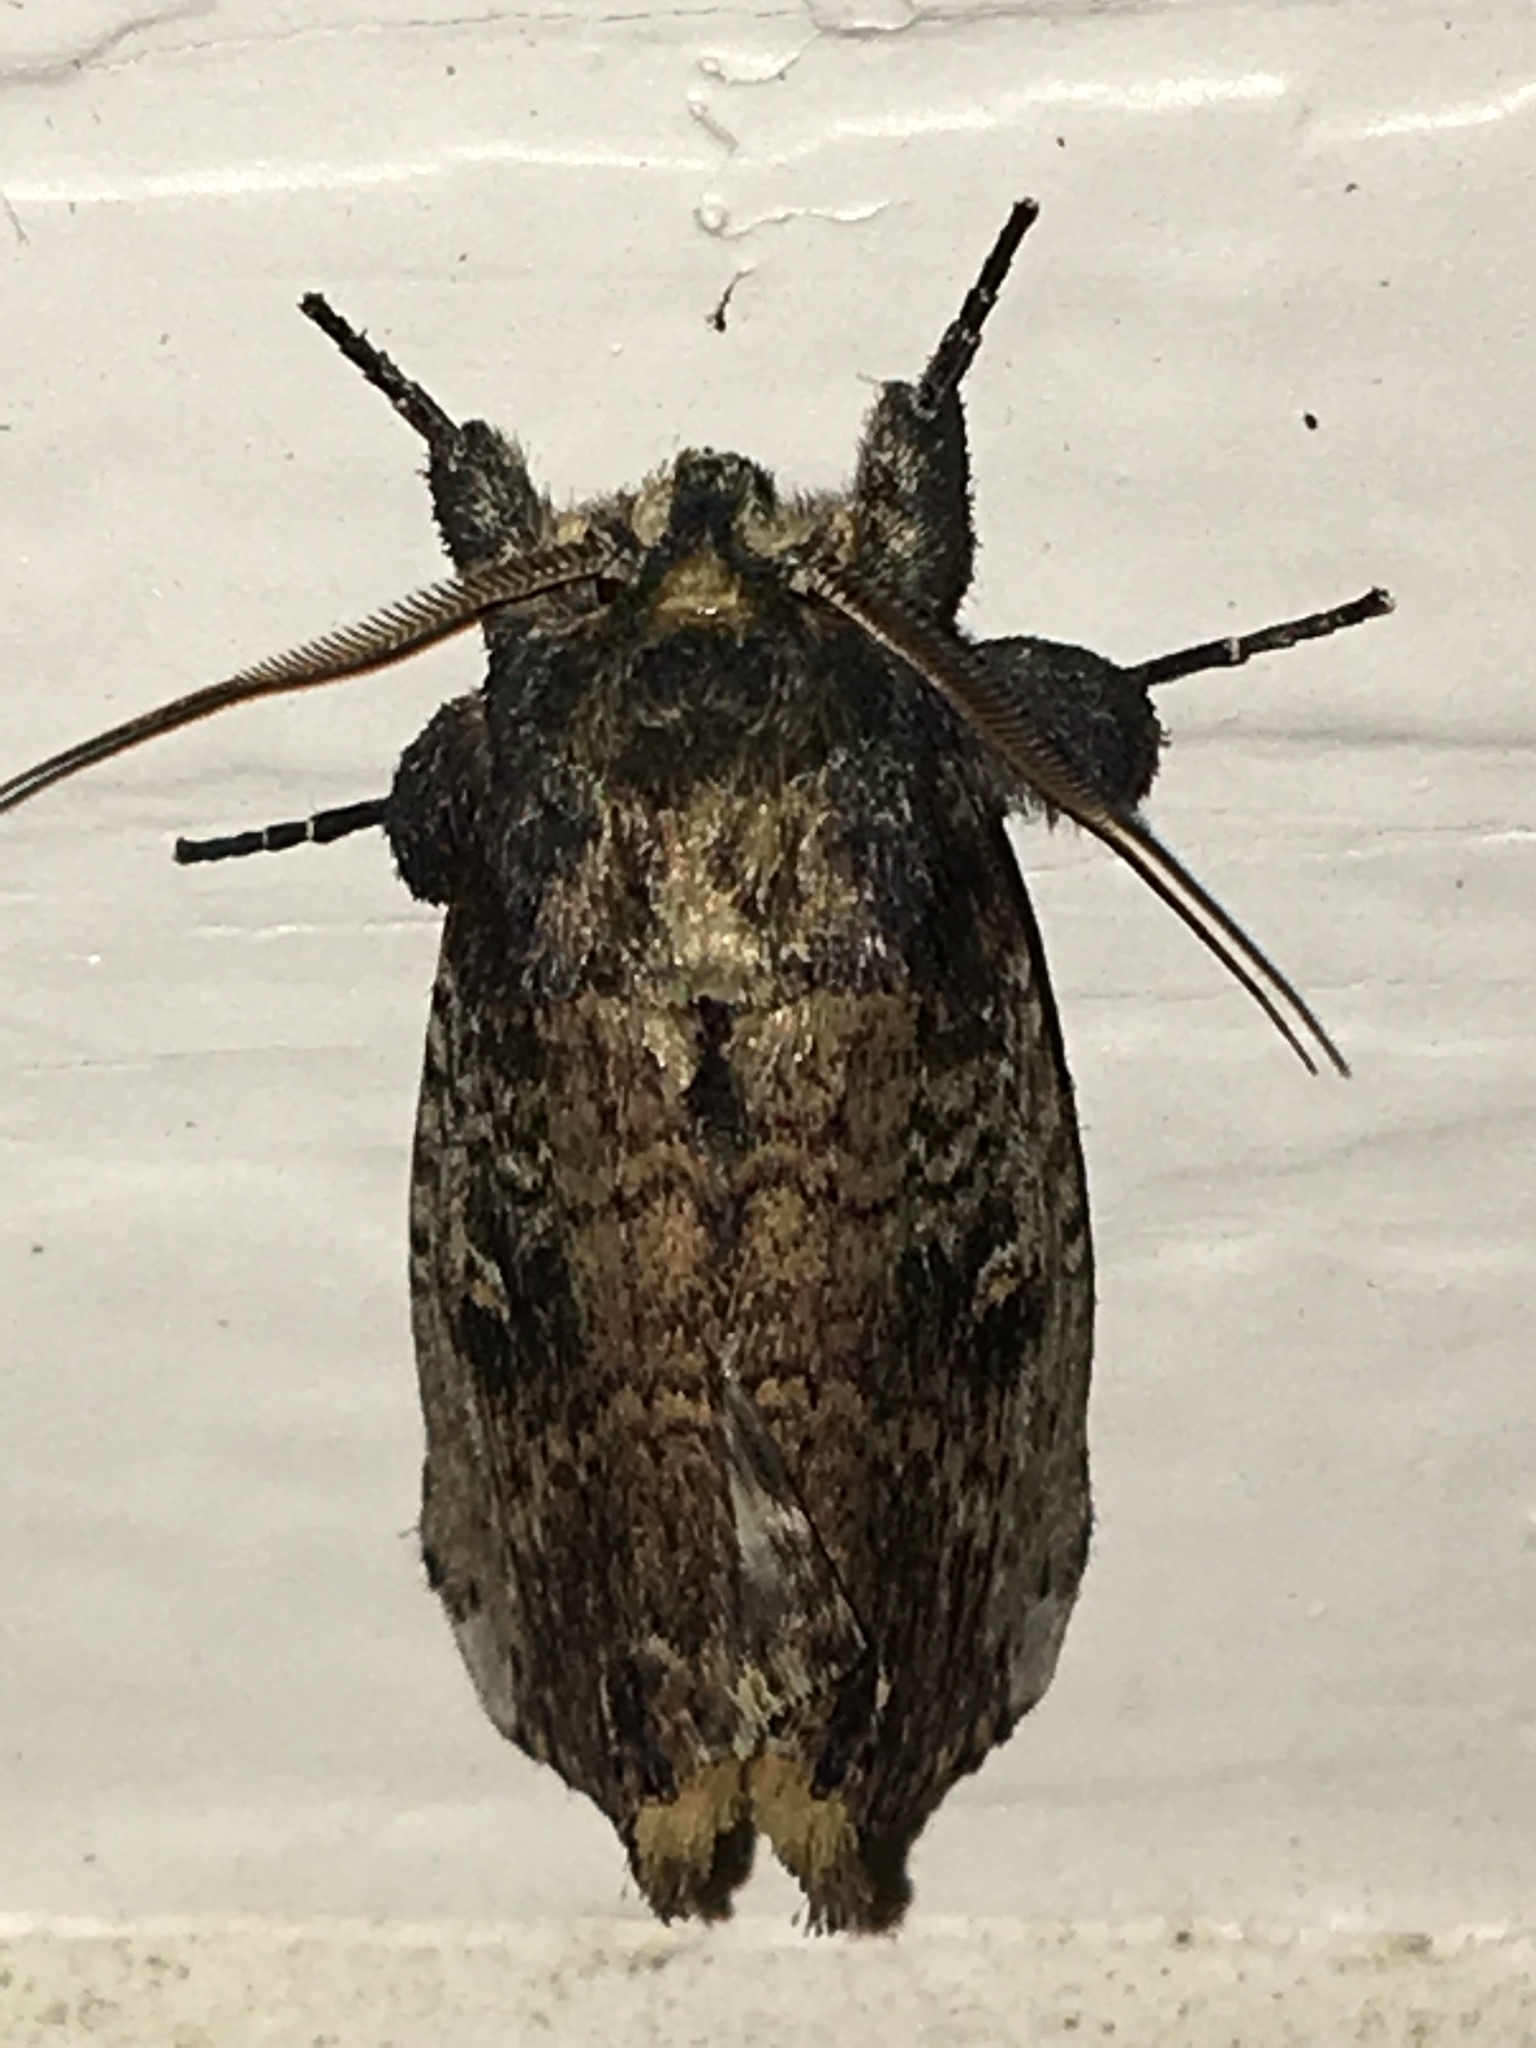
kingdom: Animalia
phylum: Arthropoda
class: Insecta
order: Lepidoptera
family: Notodontidae
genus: Schizura
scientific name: Schizura ipomaeae
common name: Morning-glory prominent
